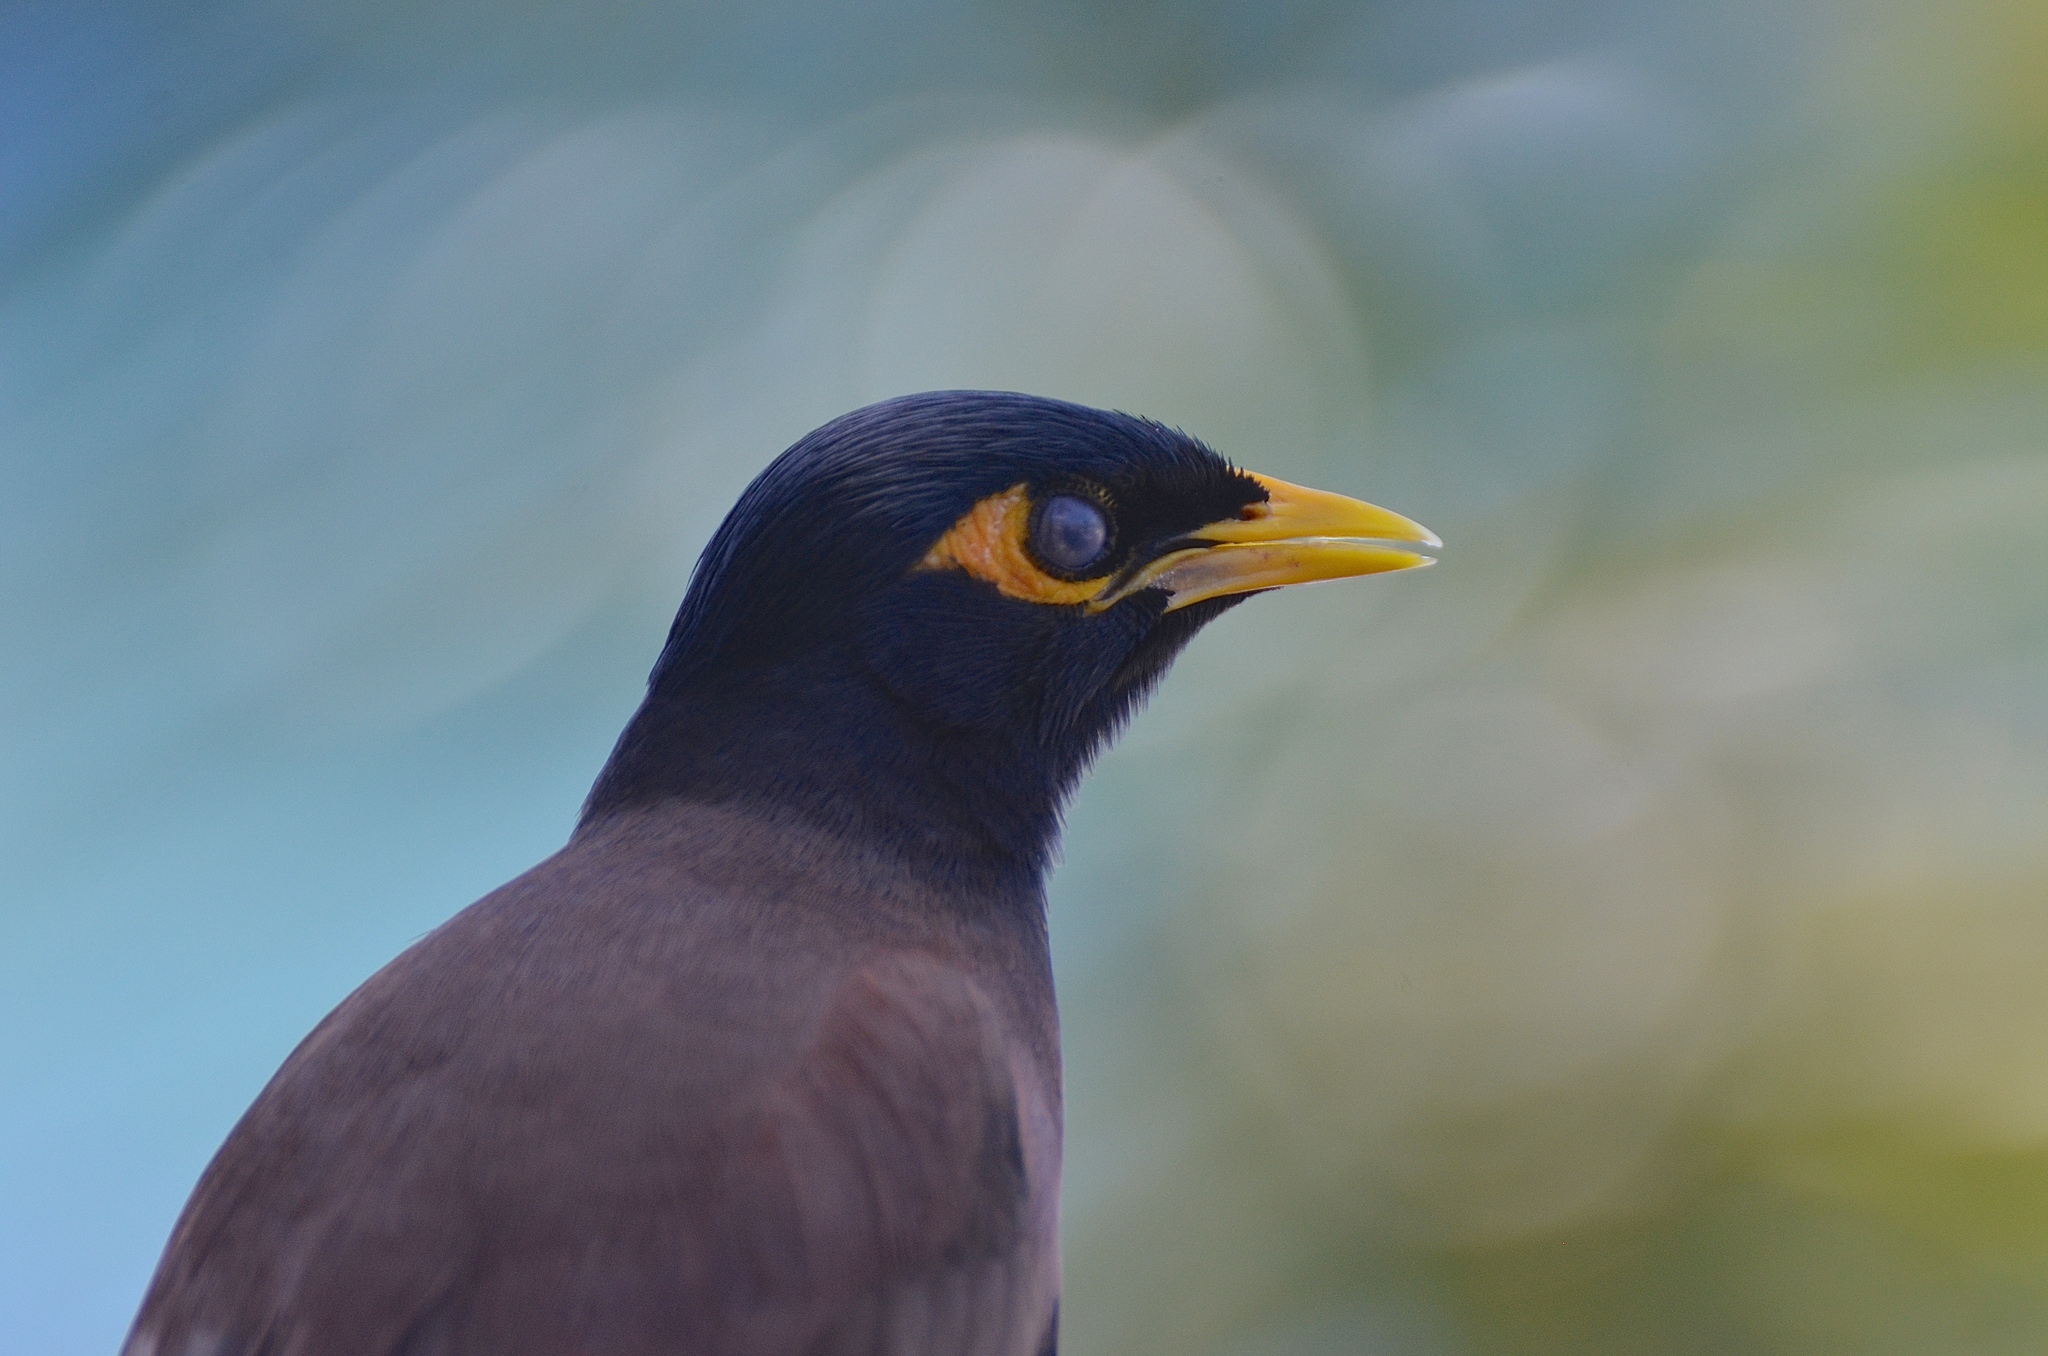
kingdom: Animalia
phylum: Chordata
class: Aves
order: Passeriformes
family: Sturnidae
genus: Acridotheres
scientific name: Acridotheres tristis
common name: Common myna
